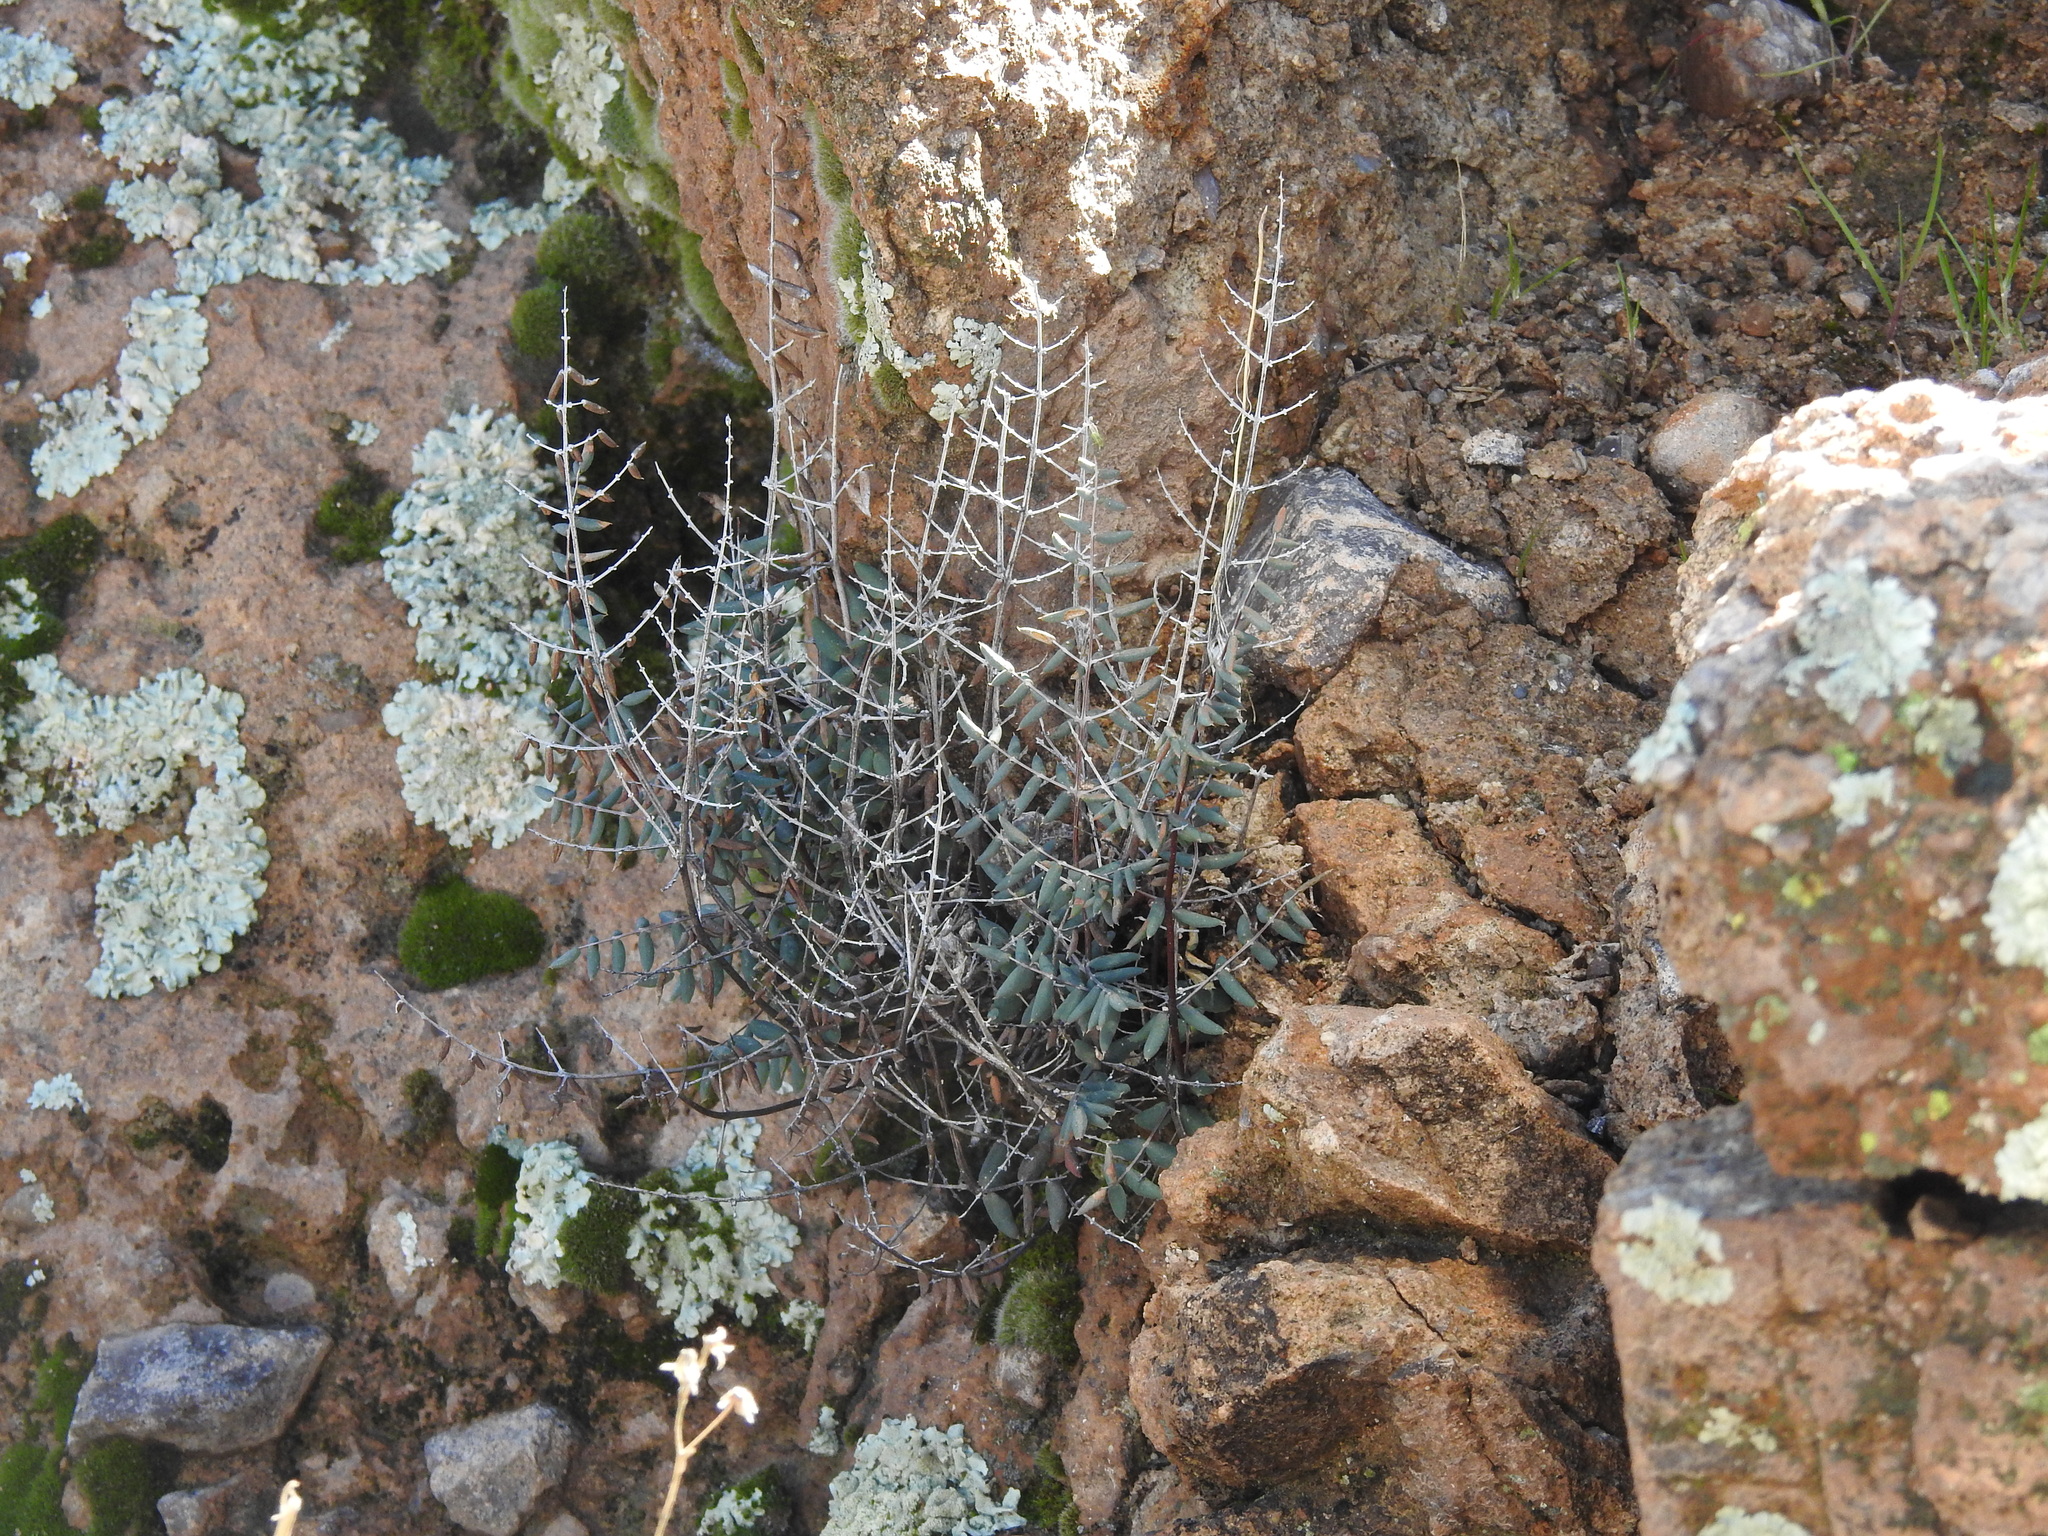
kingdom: Plantae
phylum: Tracheophyta
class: Polypodiopsida
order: Polypodiales
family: Pteridaceae
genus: Pellaea
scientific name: Pellaea truncata
